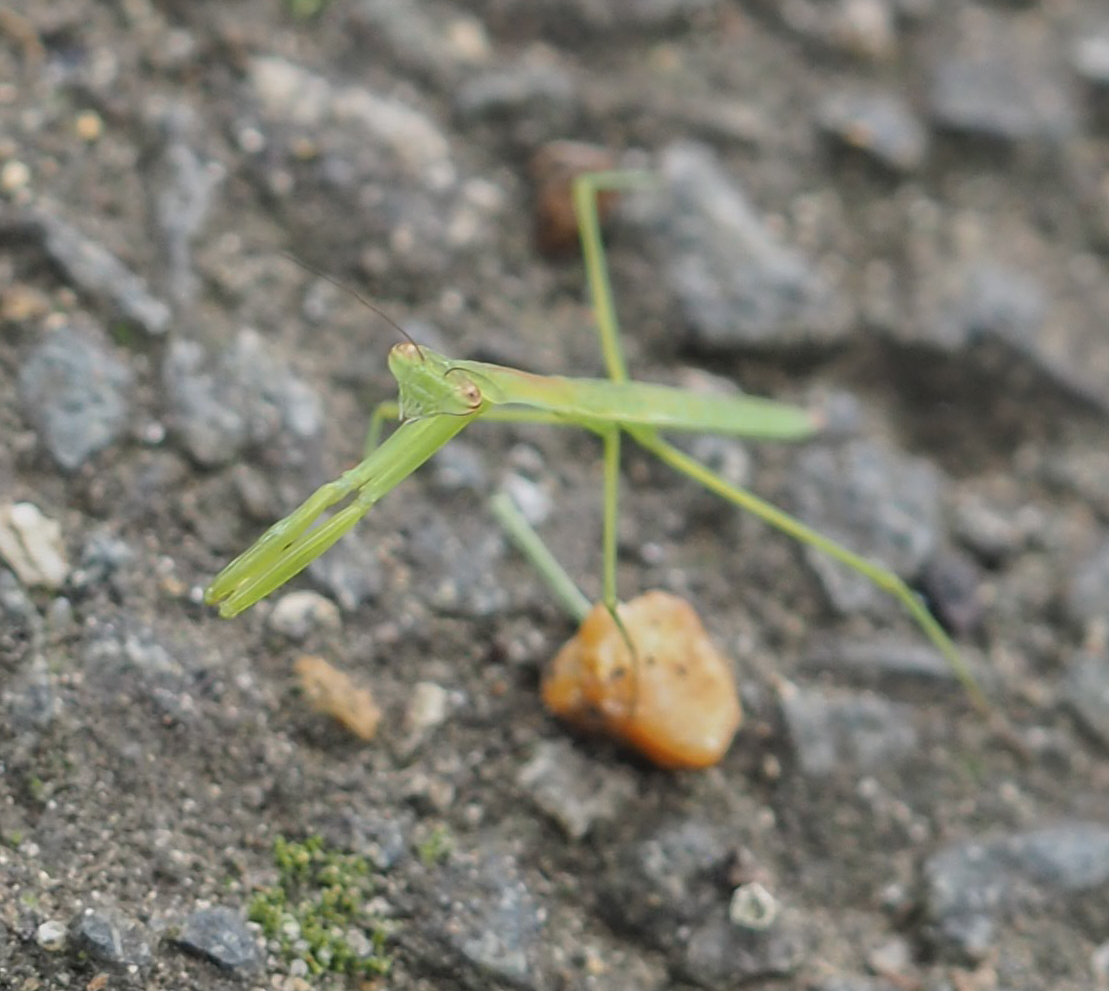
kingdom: Animalia
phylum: Arthropoda
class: Insecta
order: Mantodea
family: Mantidae
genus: Tenodera
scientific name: Tenodera sinensis
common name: Chinese mantis
